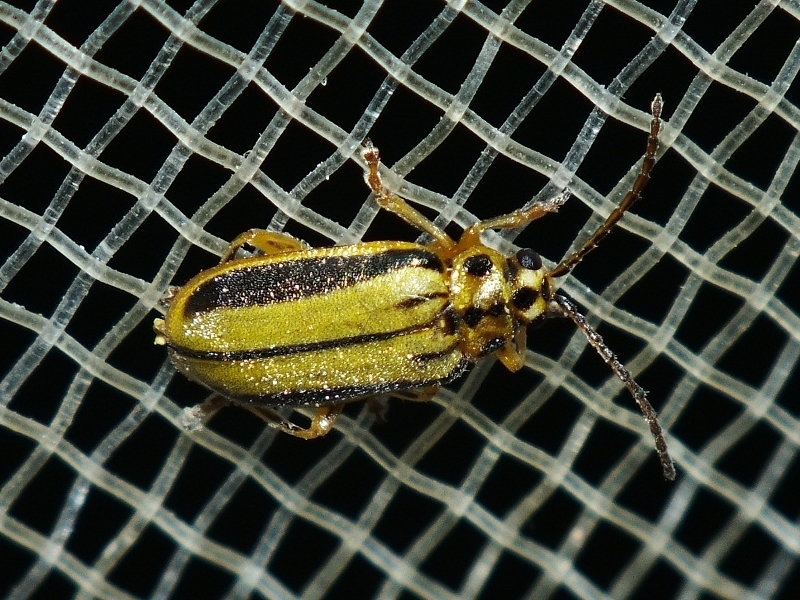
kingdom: Animalia
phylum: Arthropoda
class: Insecta
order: Coleoptera
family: Chrysomelidae
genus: Xanthogaleruca
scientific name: Xanthogaleruca luteola
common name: Elm leaf beetle
